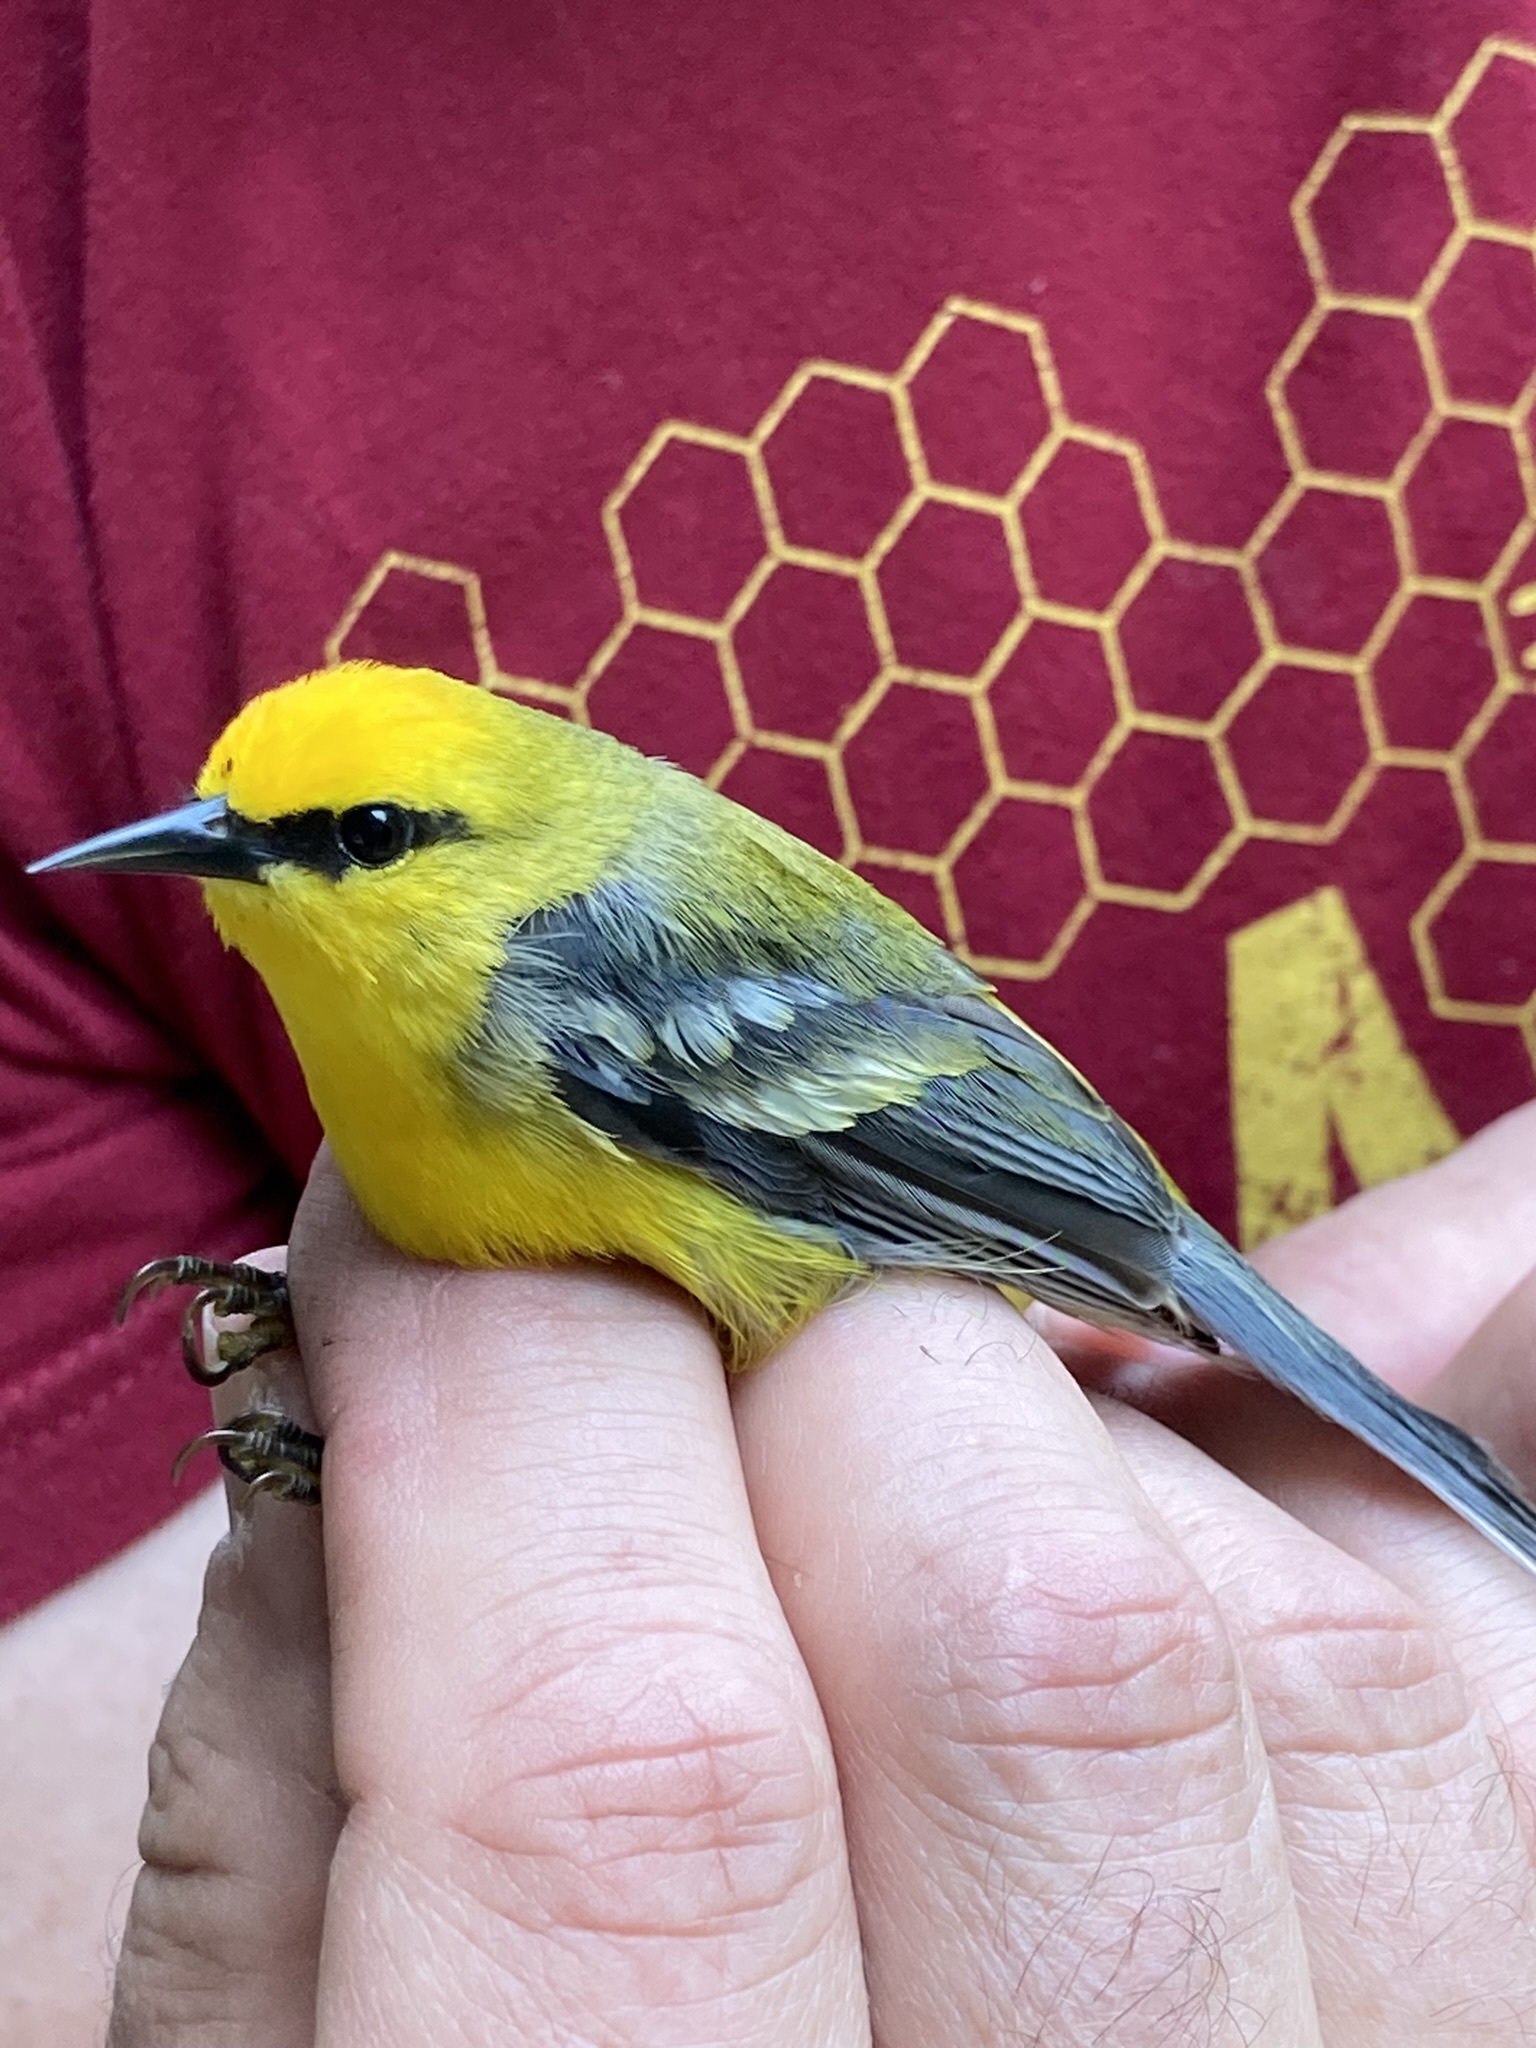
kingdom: Animalia
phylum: Chordata
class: Aves
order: Passeriformes
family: Parulidae
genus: Vermivora
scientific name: Vermivora cyanoptera
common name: Blue-winged warbler
